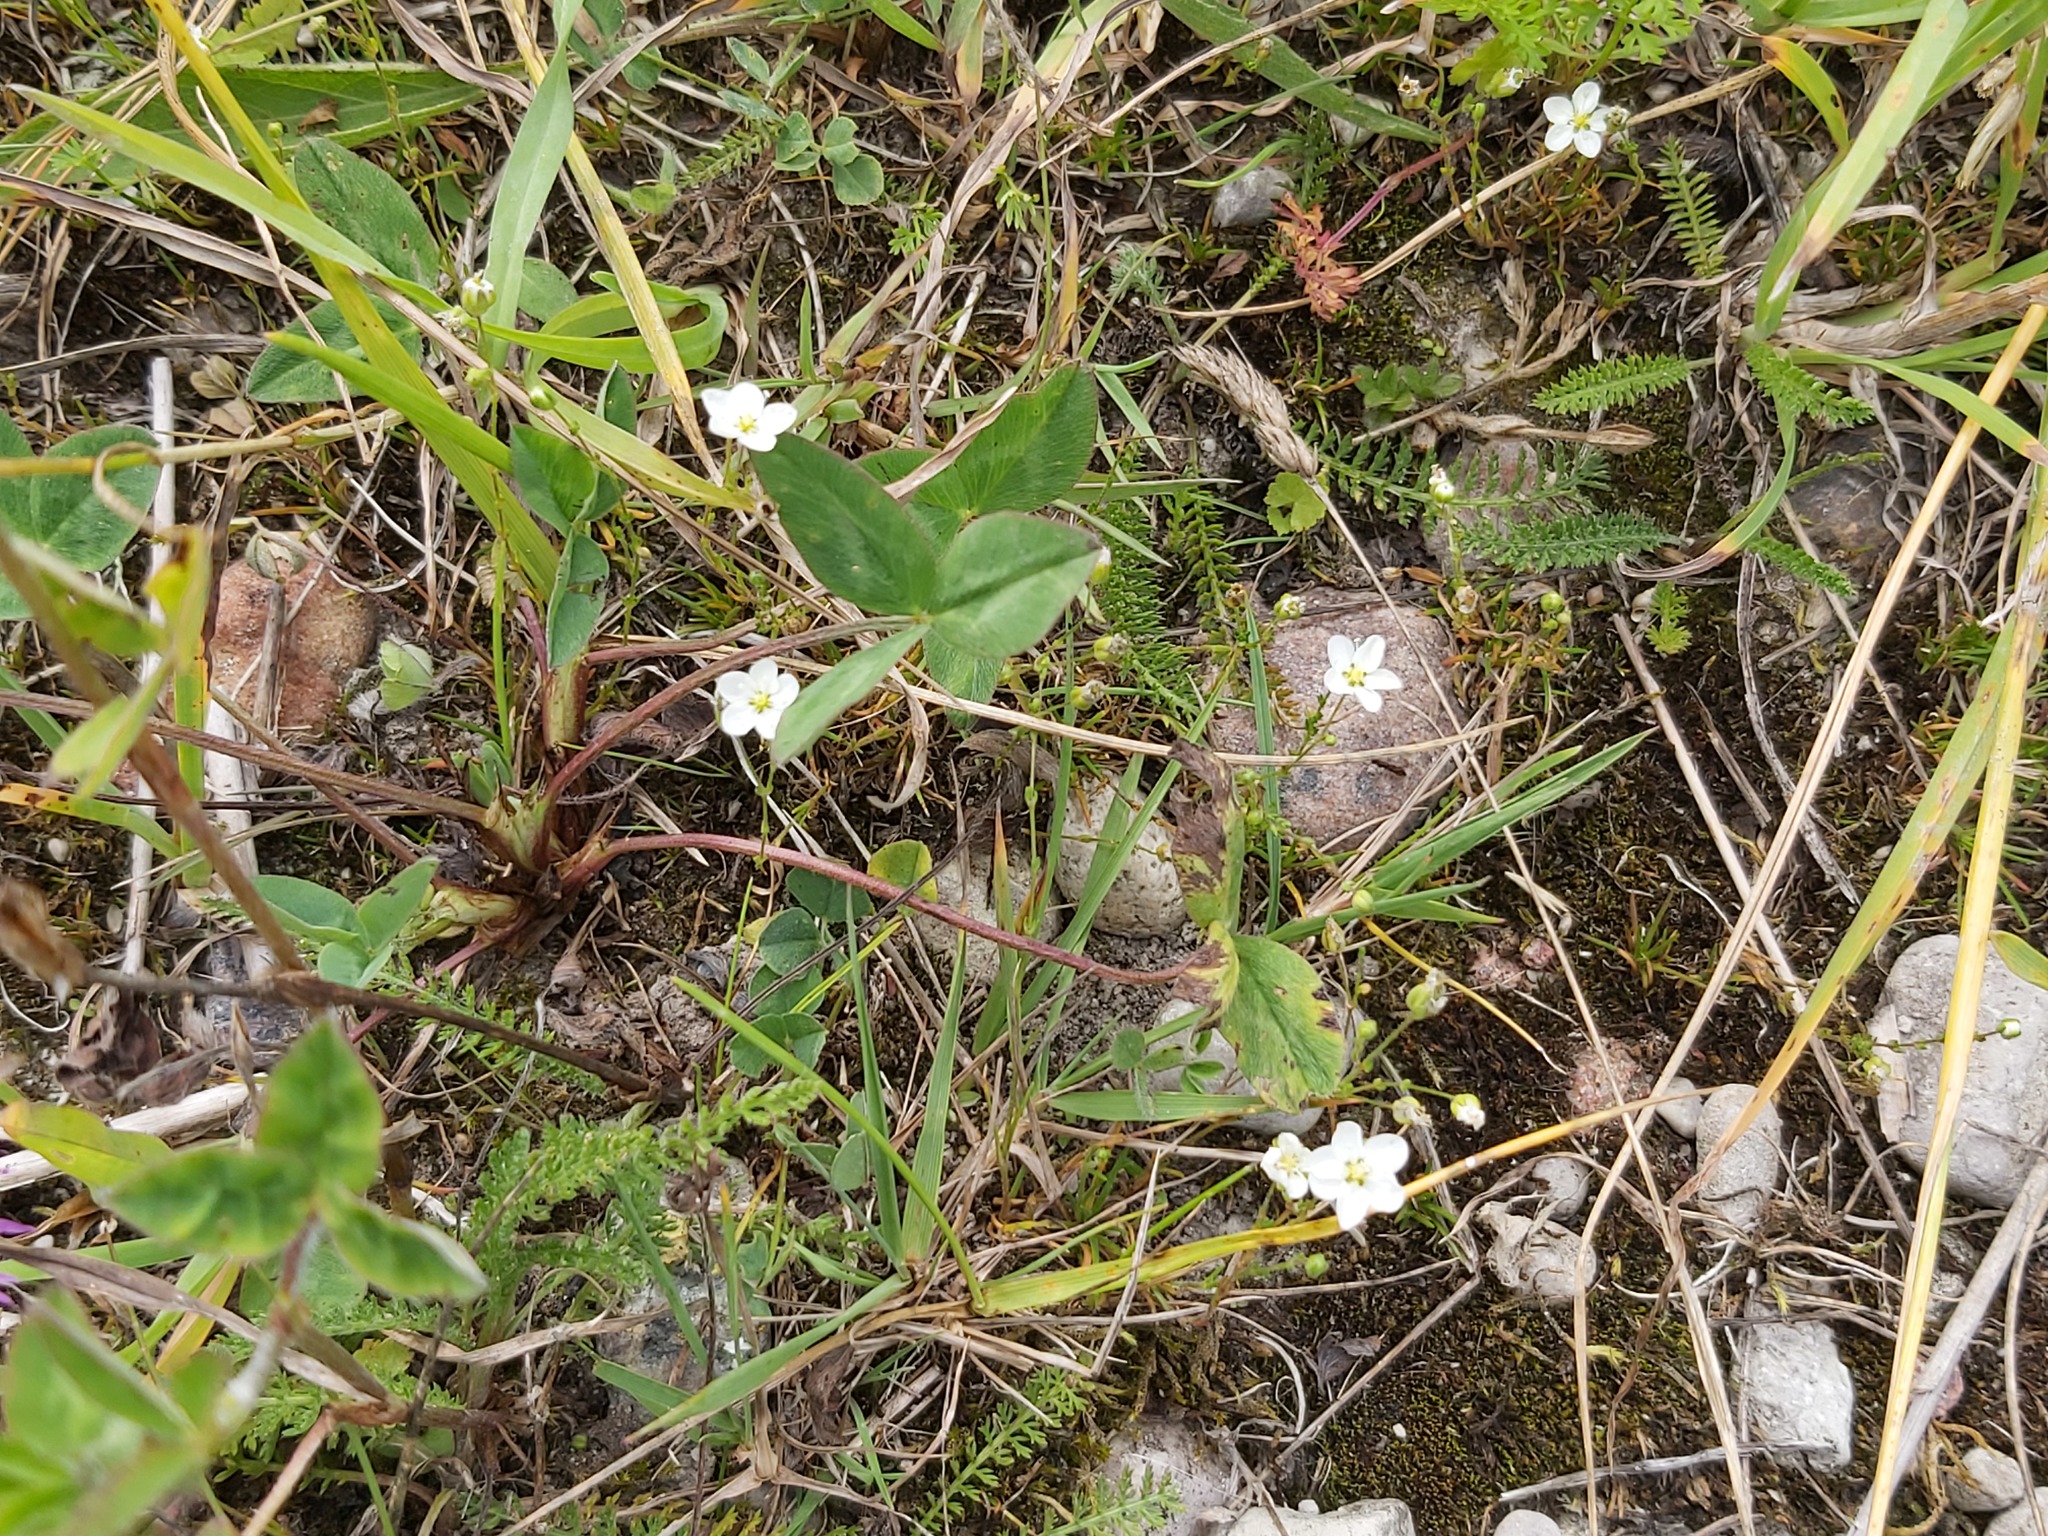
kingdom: Plantae
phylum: Tracheophyta
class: Magnoliopsida
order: Caryophyllales
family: Caryophyllaceae
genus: Sagina
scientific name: Sagina nodosa
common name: Knotted pearlwort
